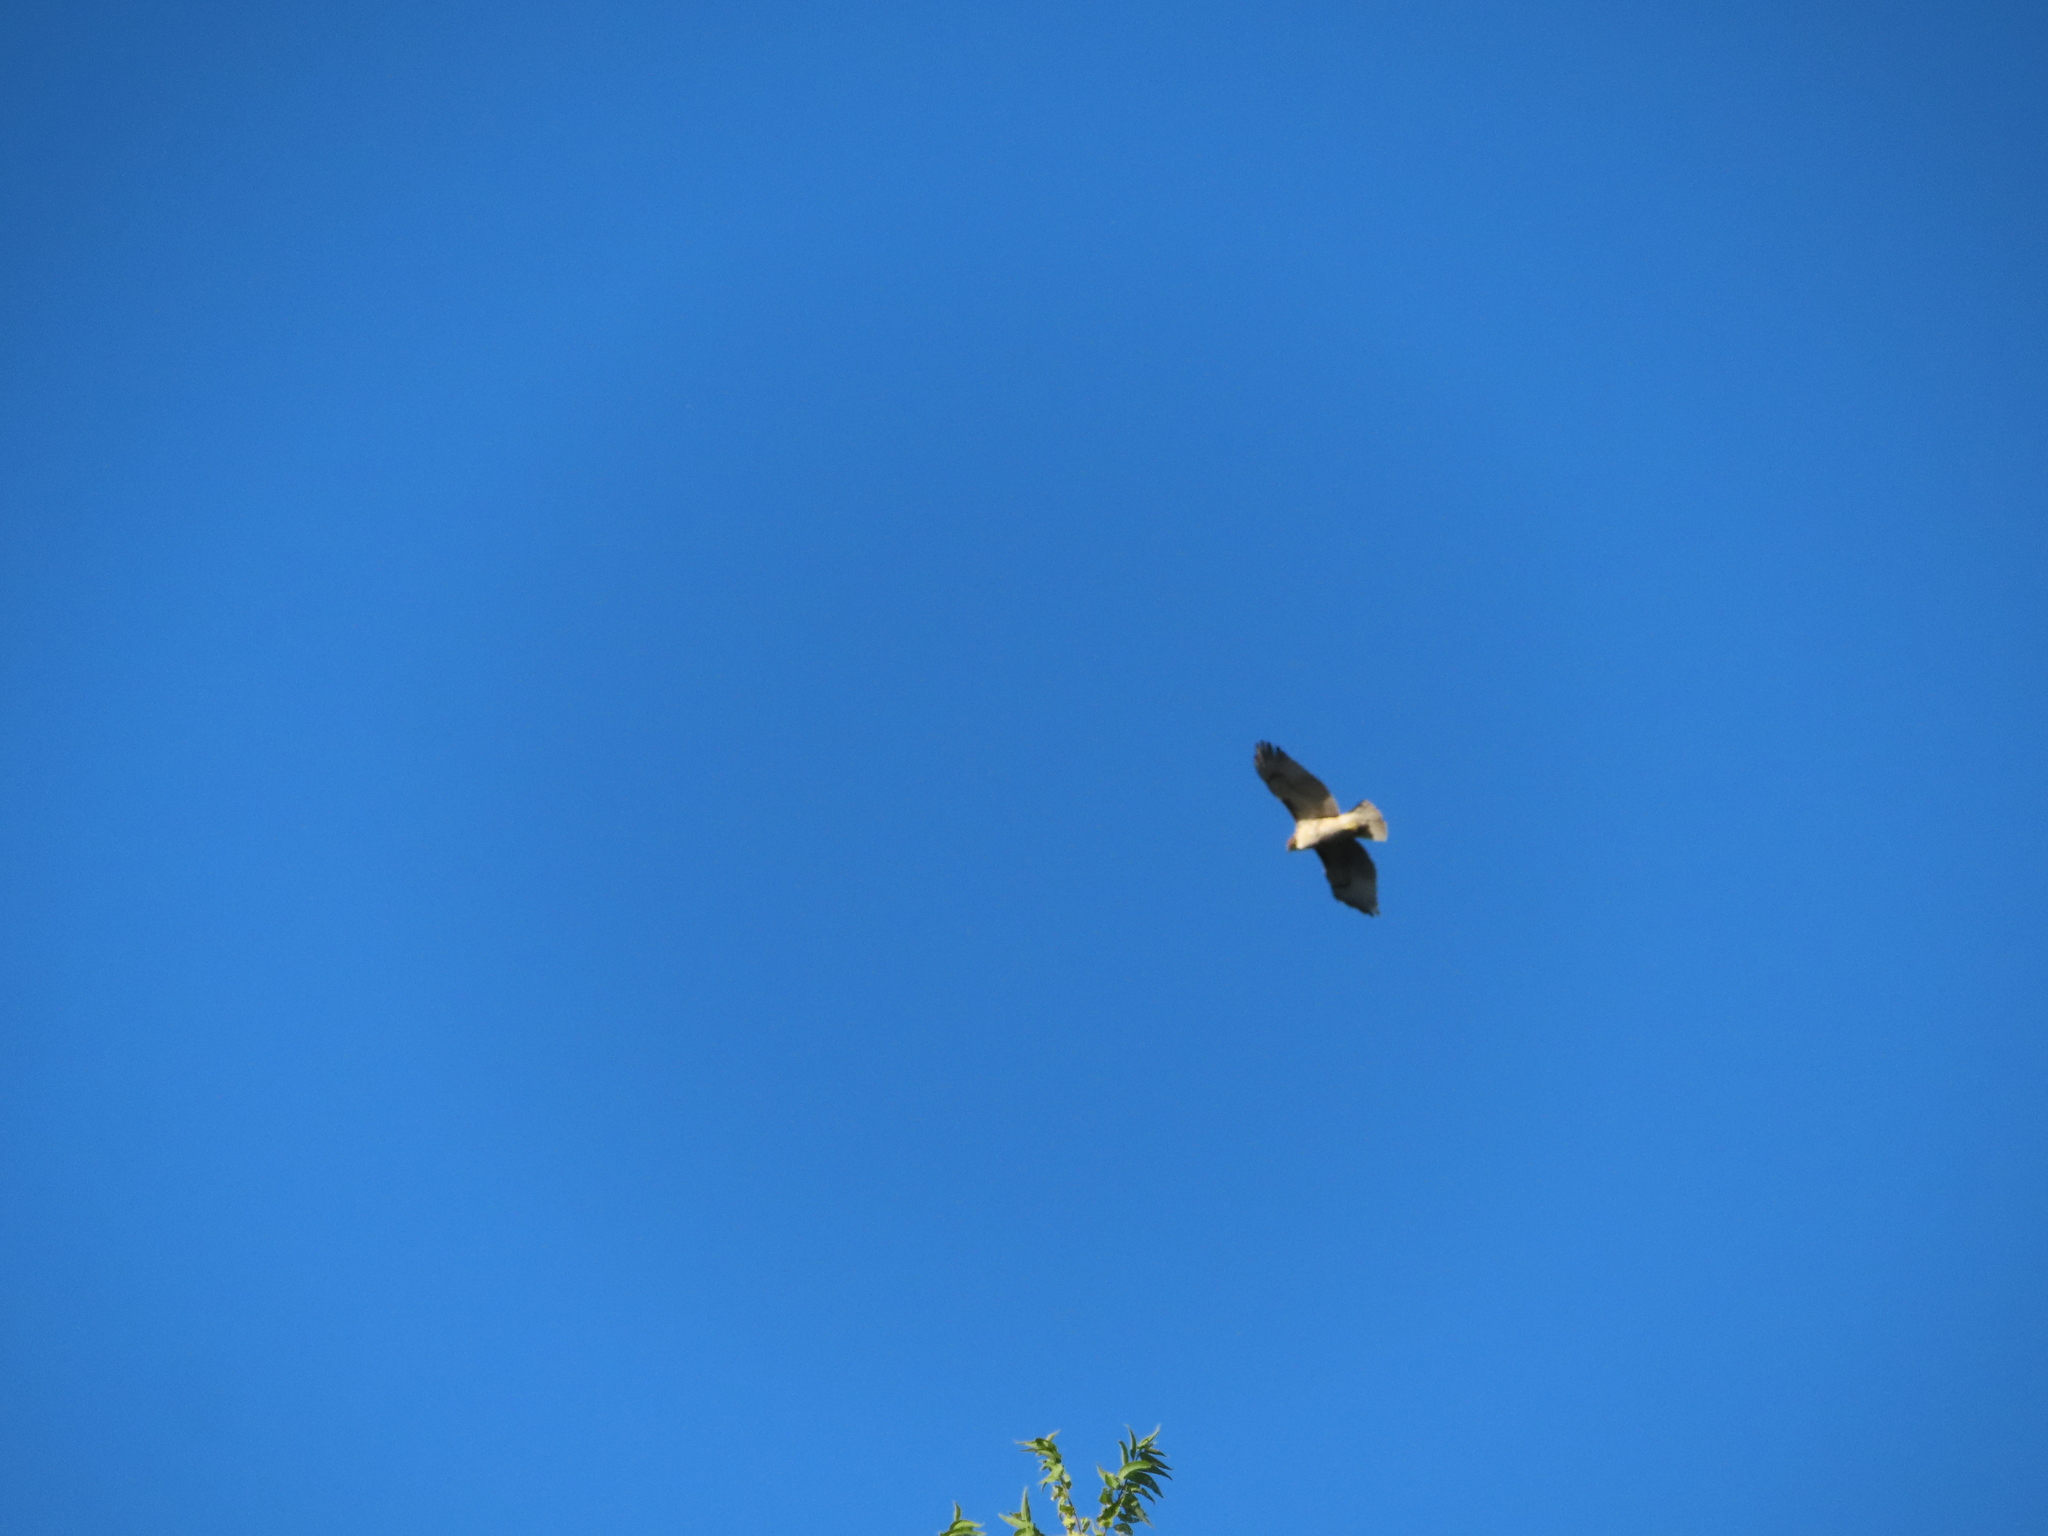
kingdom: Animalia
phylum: Chordata
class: Aves
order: Accipitriformes
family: Accipitridae
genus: Buteo
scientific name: Buteo jamaicensis
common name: Red-tailed hawk
